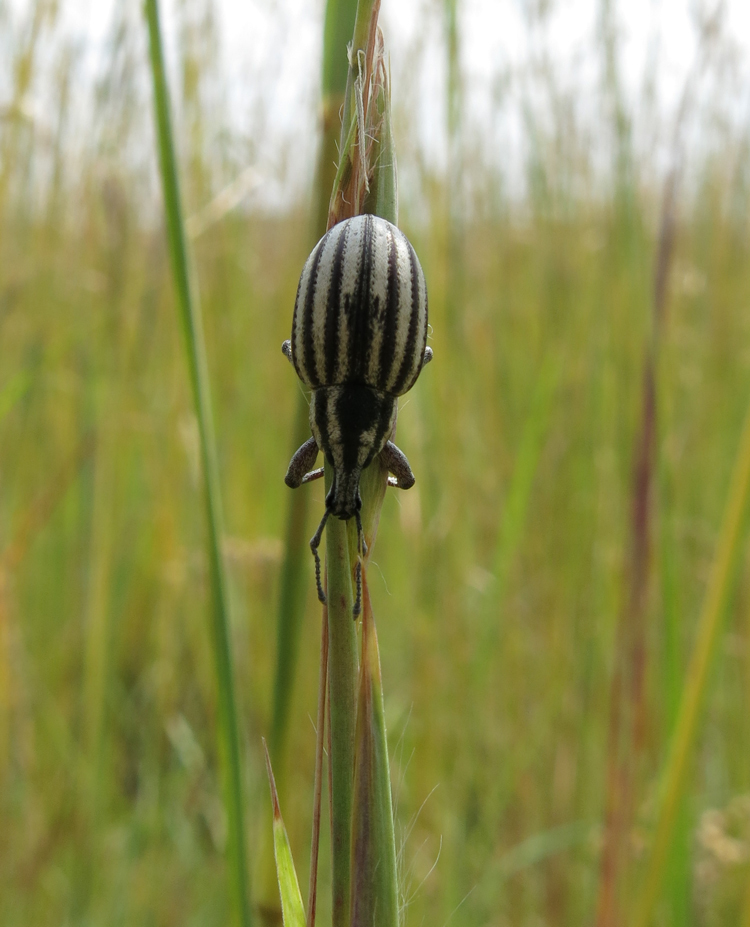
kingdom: Animalia
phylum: Arthropoda
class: Insecta
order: Coleoptera
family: Curculionidae
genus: Eremnus
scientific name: Eremnus lineatus
